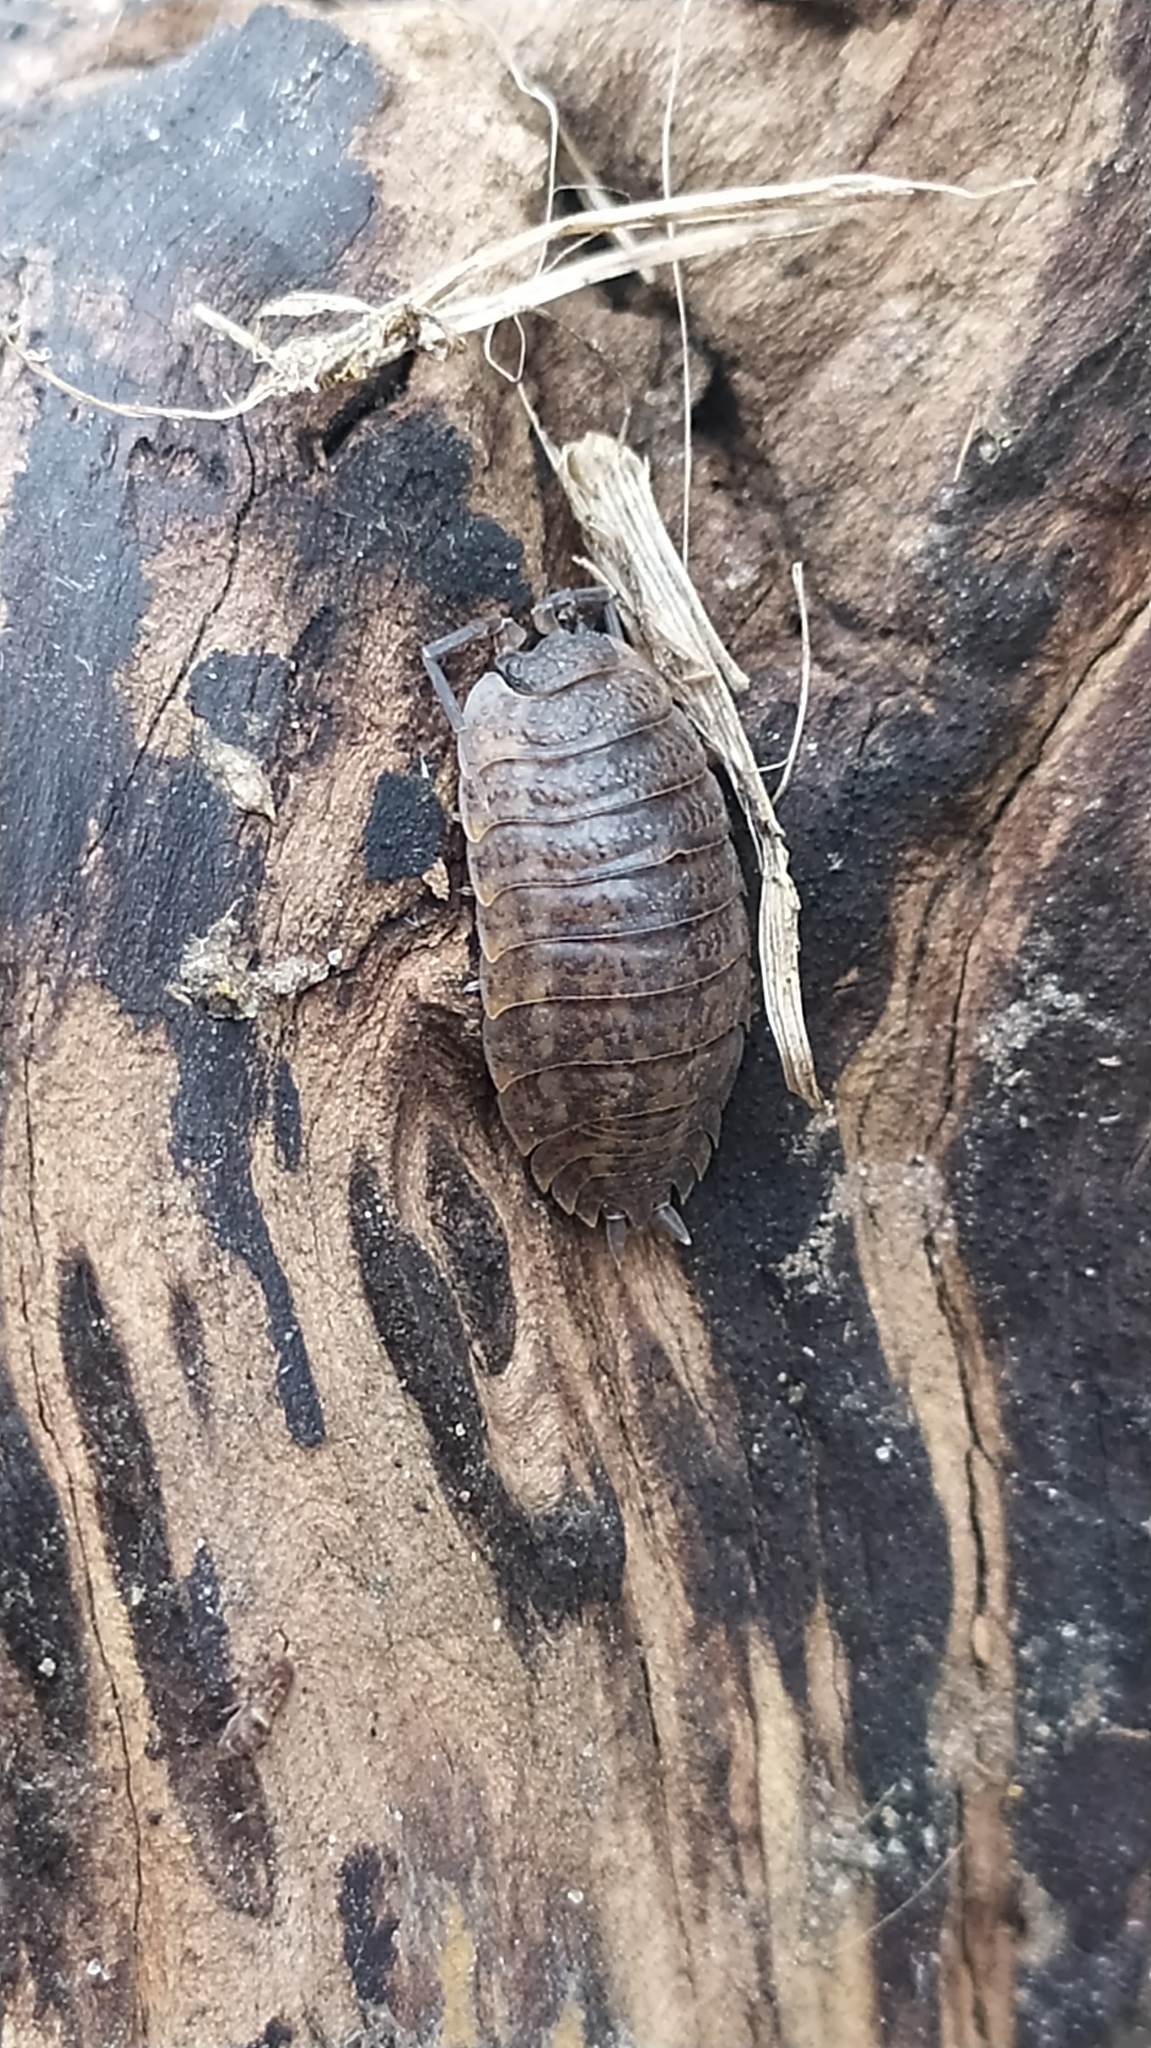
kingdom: Animalia
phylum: Arthropoda
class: Malacostraca
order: Isopoda
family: Trachelipodidae
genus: Trachelipus
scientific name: Trachelipus rathkii
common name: Isopod
